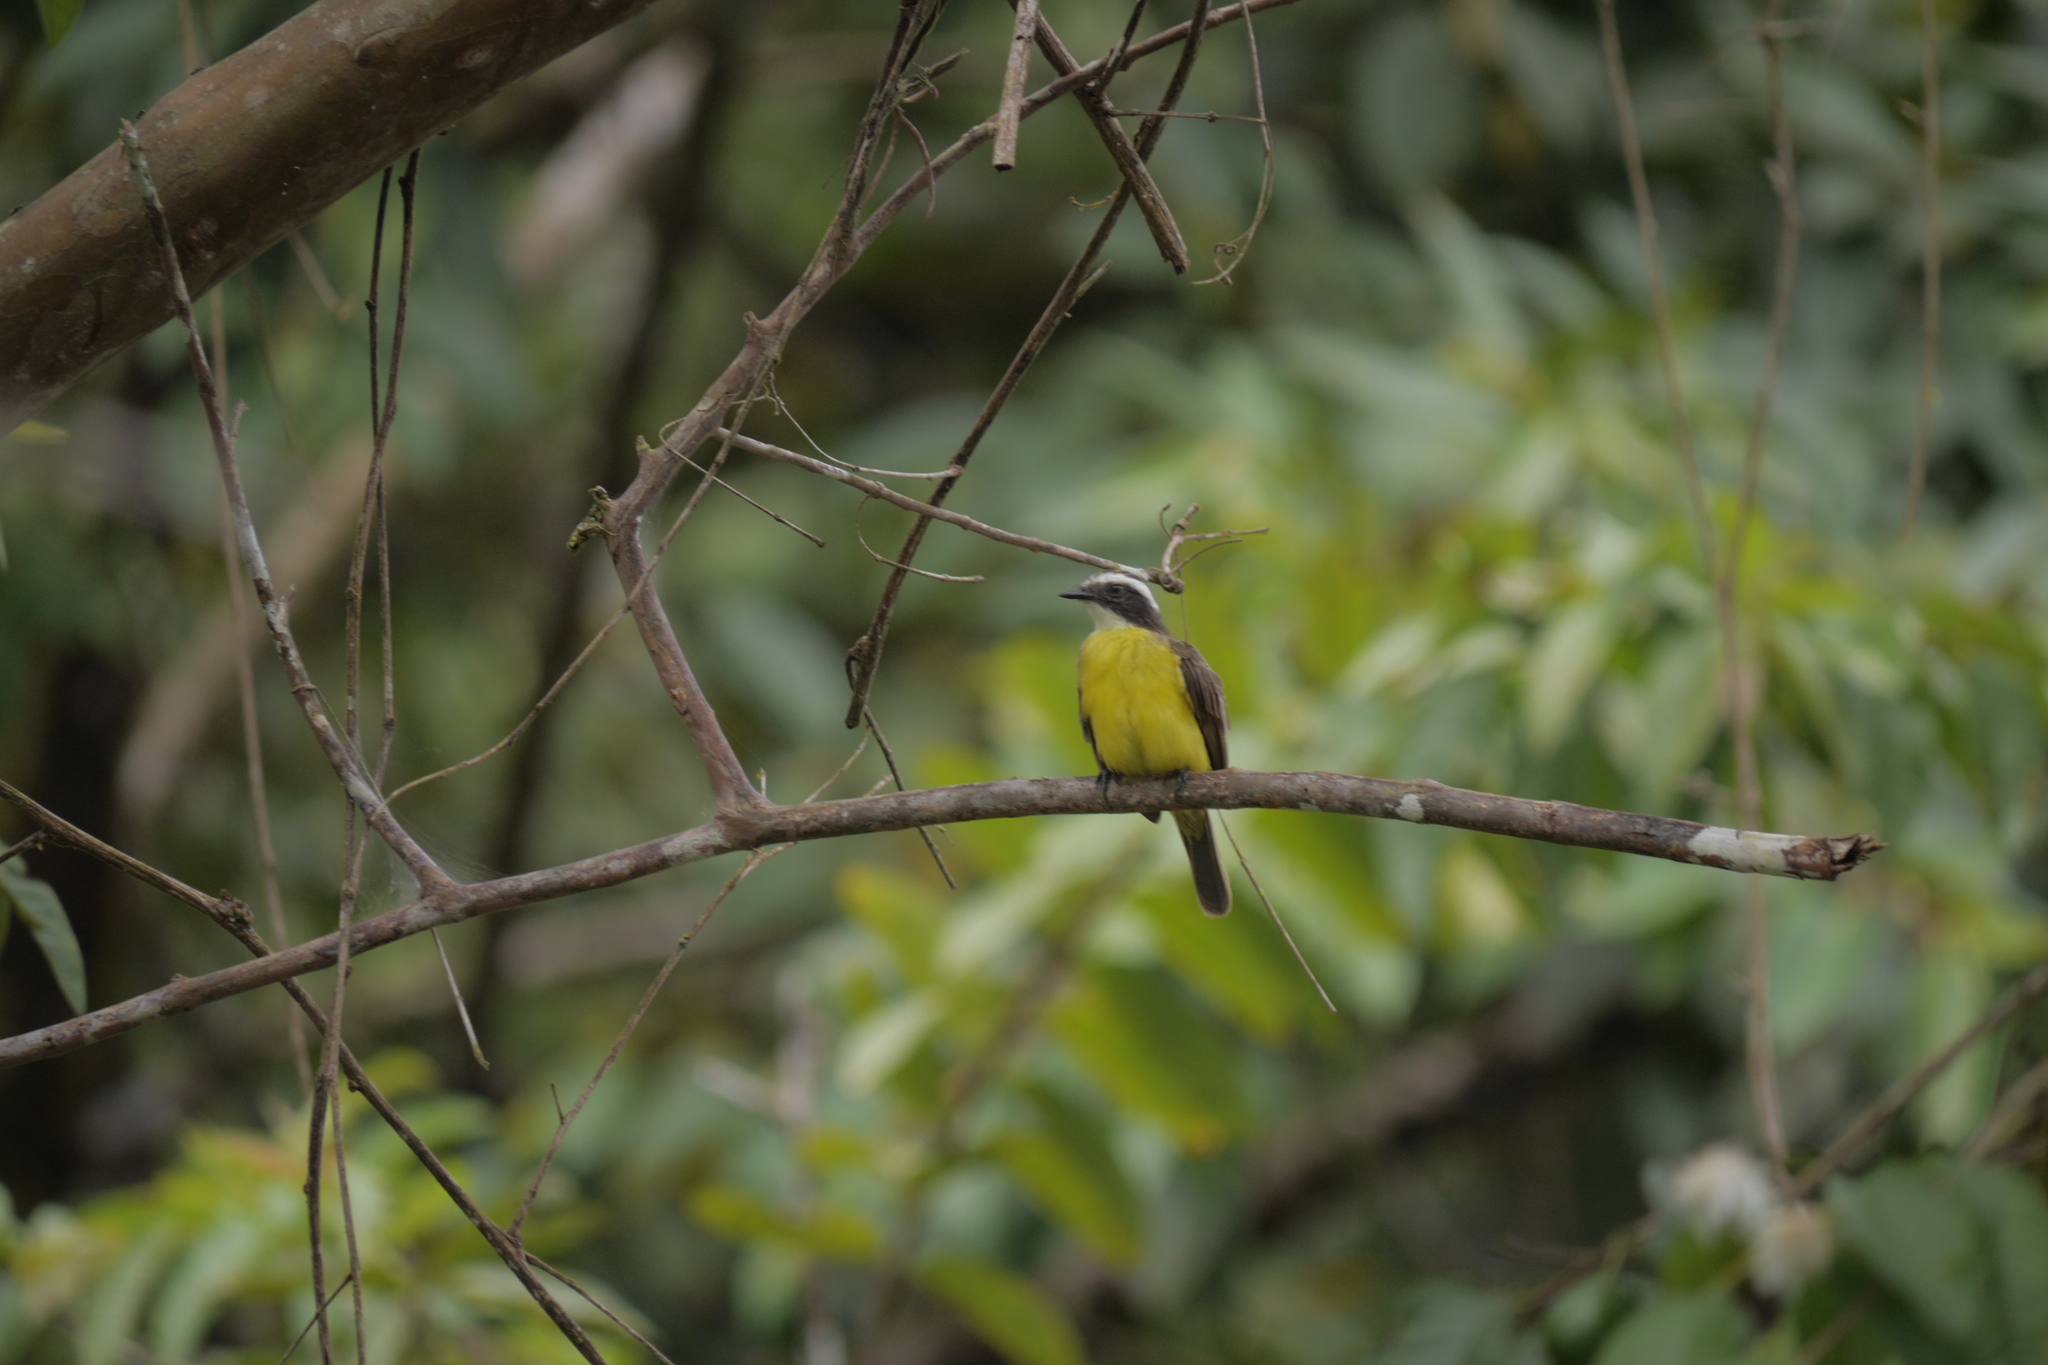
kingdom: Animalia
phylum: Chordata
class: Aves
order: Passeriformes
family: Tyrannidae
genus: Myiozetetes
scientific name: Myiozetetes similis
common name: Social flycatcher
